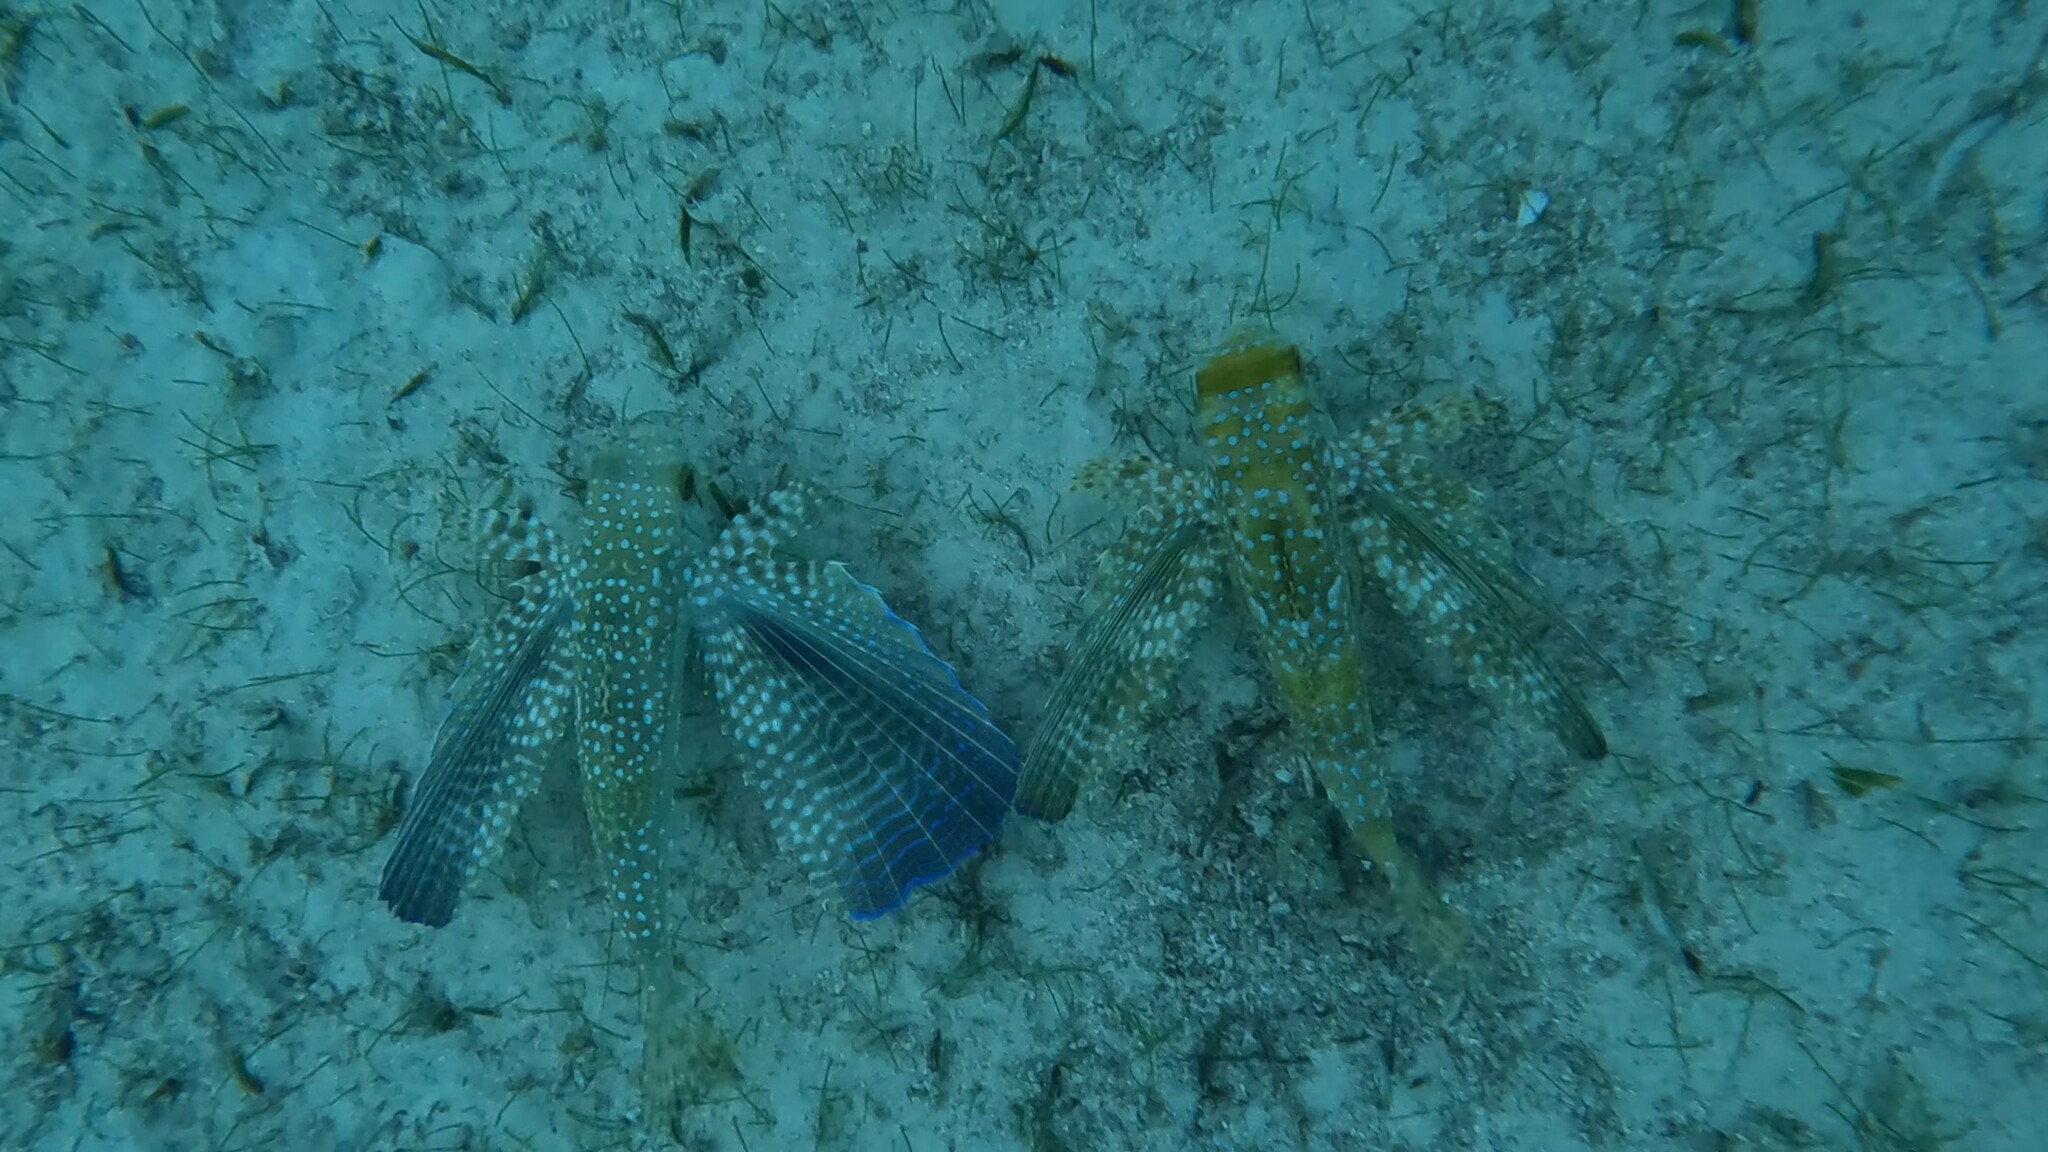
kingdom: Animalia
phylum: Chordata
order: Scorpaeniformes
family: Dactylopteridae
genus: Dactylopterus
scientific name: Dactylopterus volitans
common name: Flying gurnard
